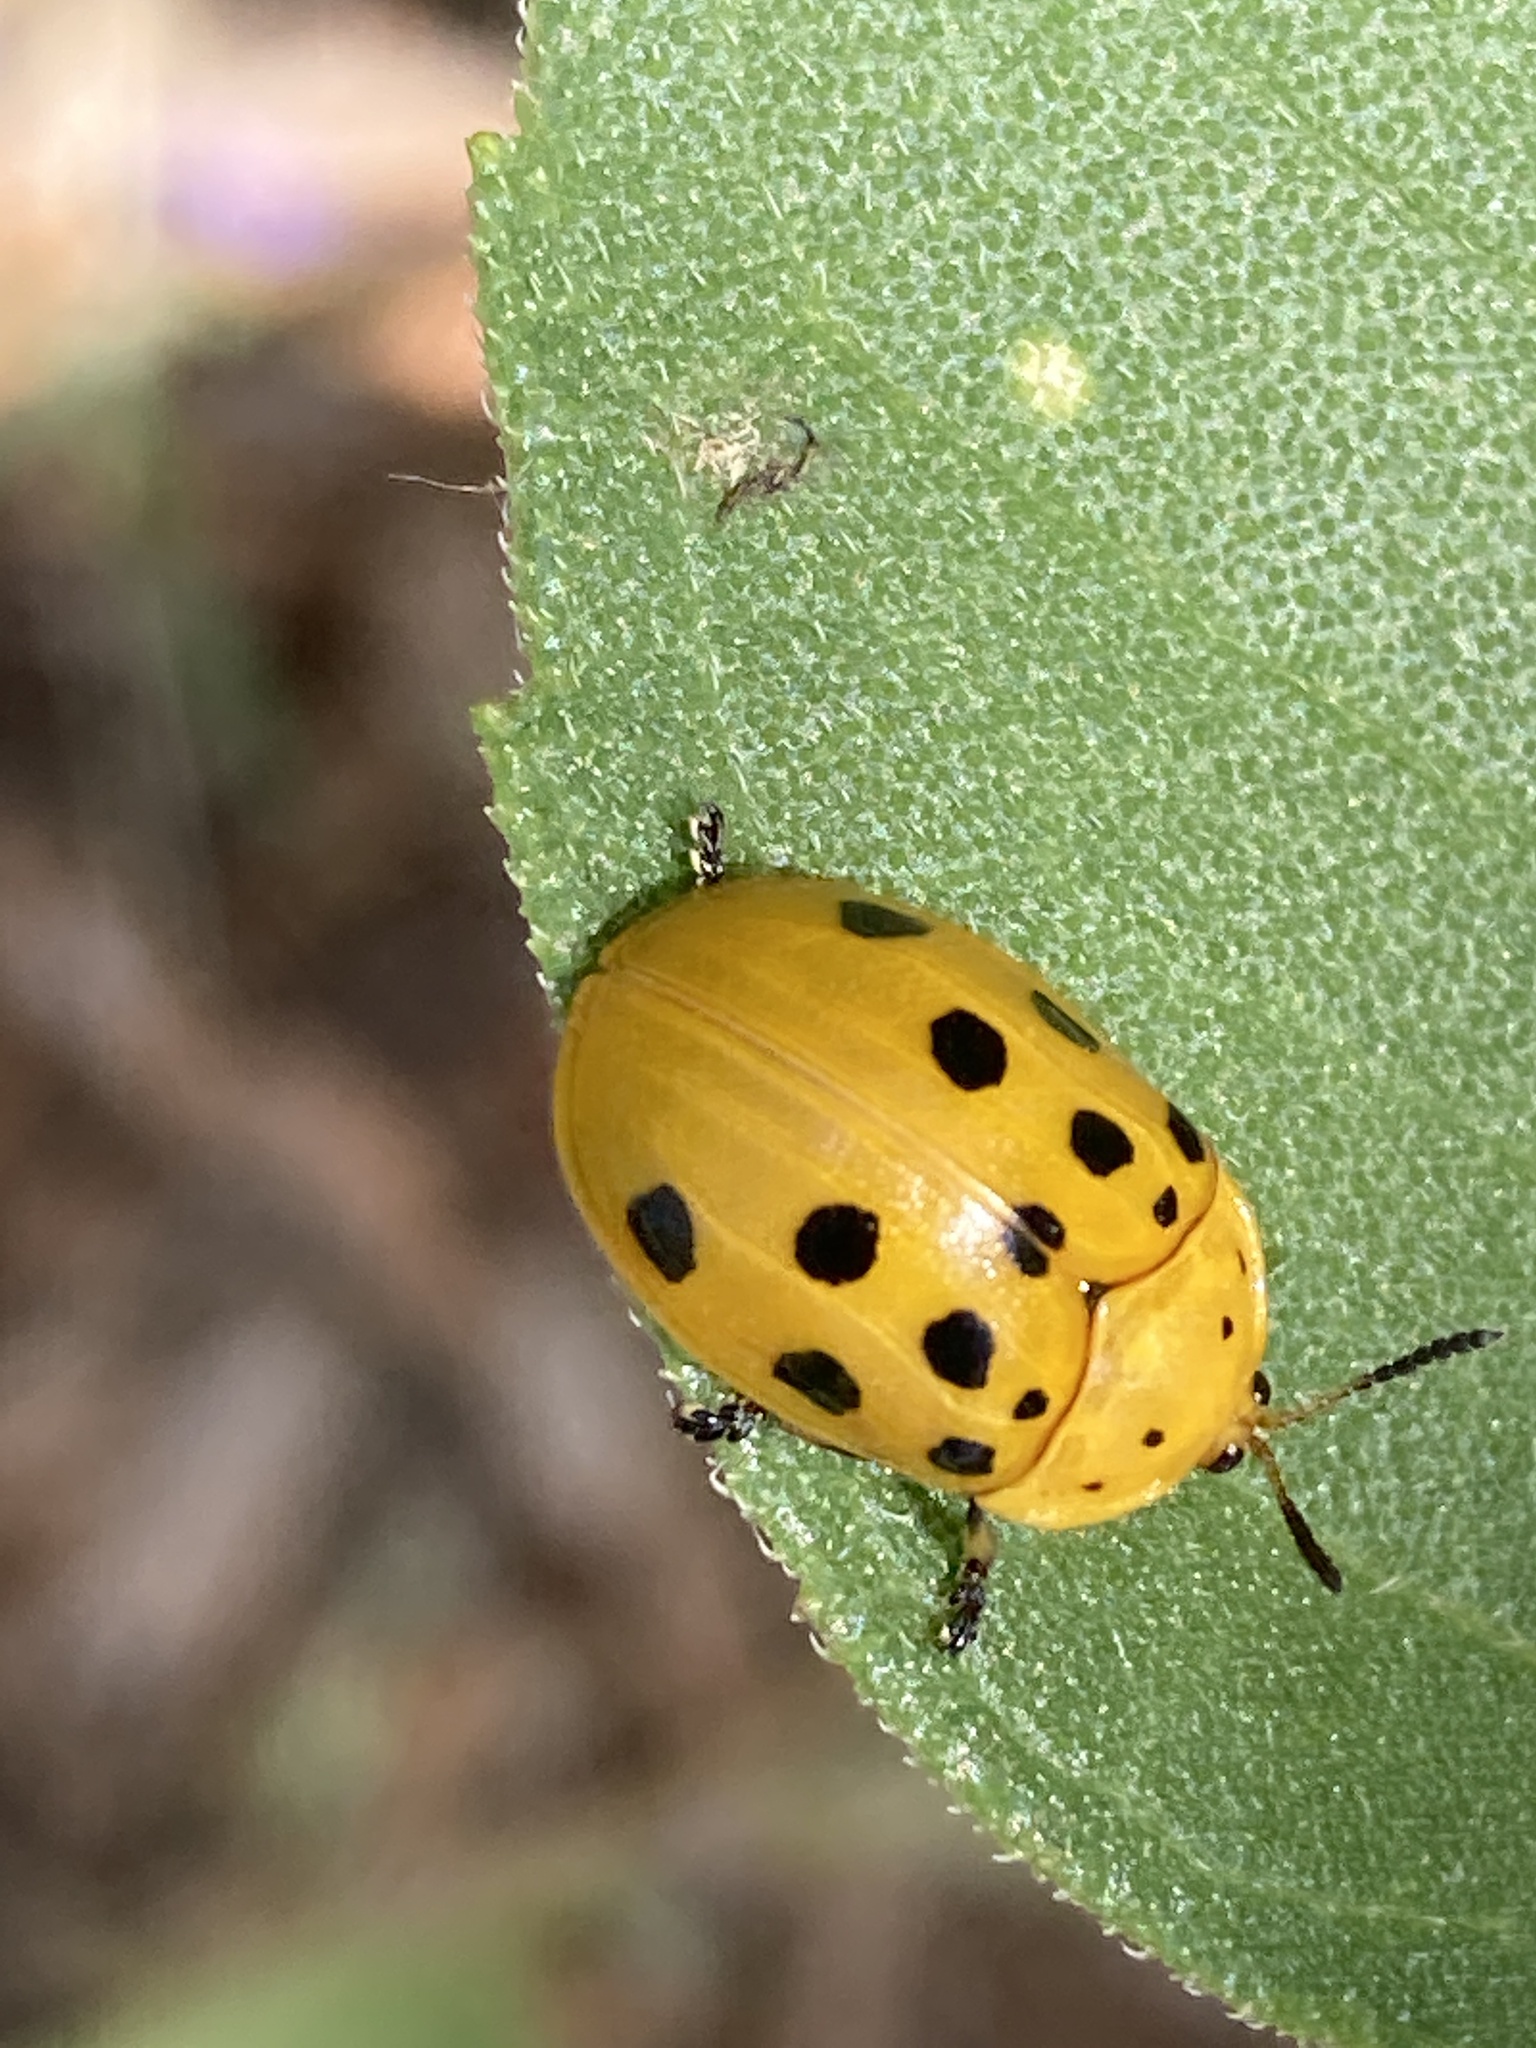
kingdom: Animalia
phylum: Arthropoda
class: Insecta
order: Coleoptera
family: Chrysomelidae
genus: Chelymorpha
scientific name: Chelymorpha cassidea
